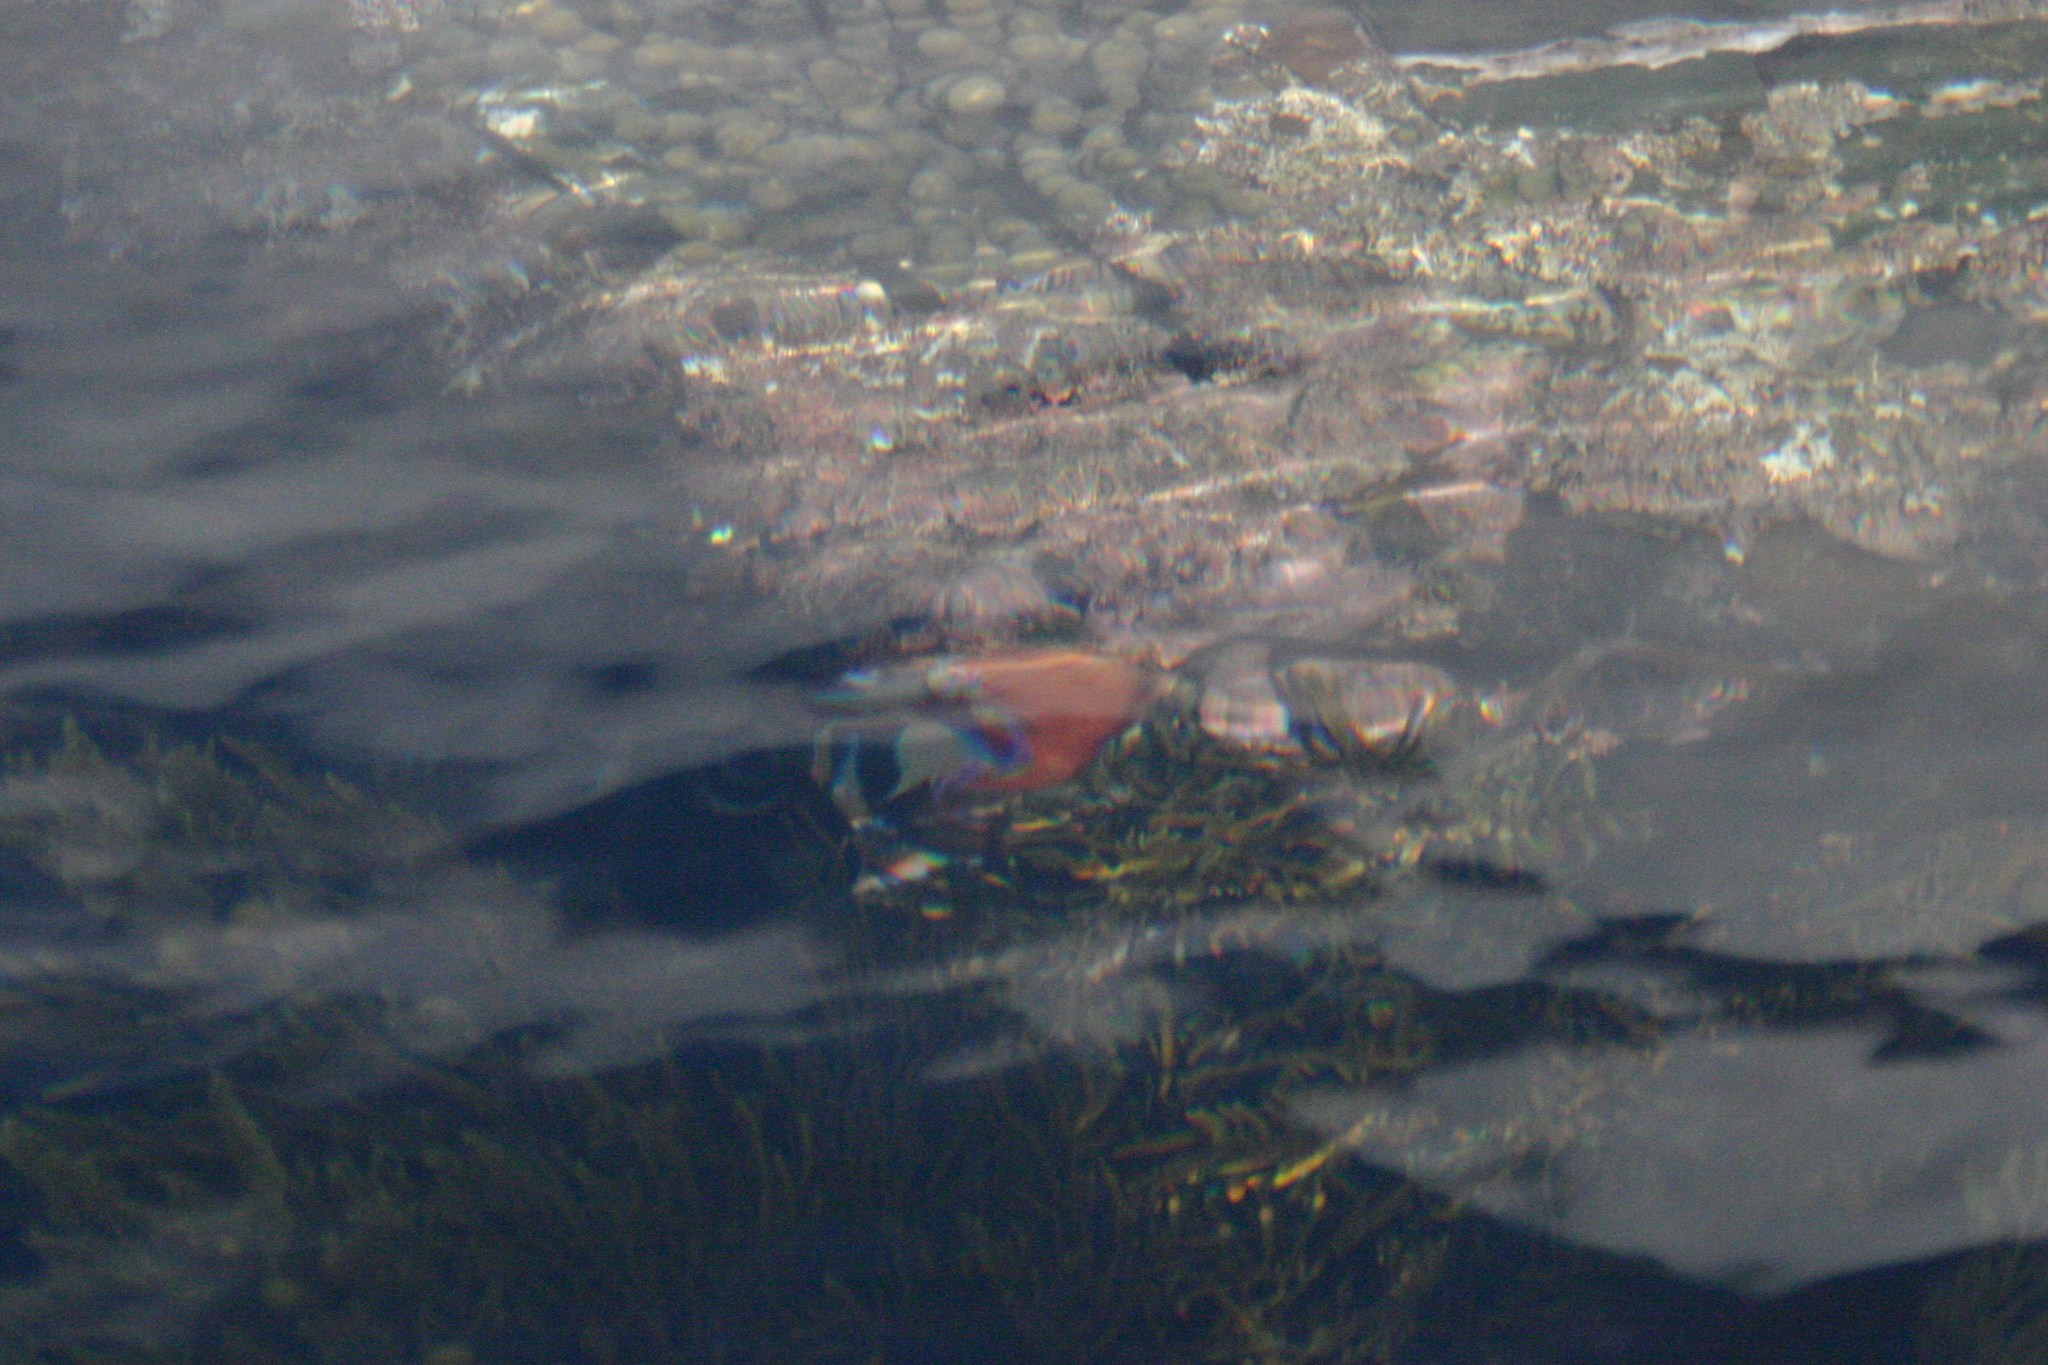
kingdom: Animalia
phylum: Cnidaria
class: Anthozoa
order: Actiniaria
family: Actiniidae
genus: Epiactis
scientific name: Epiactis thompsoni
